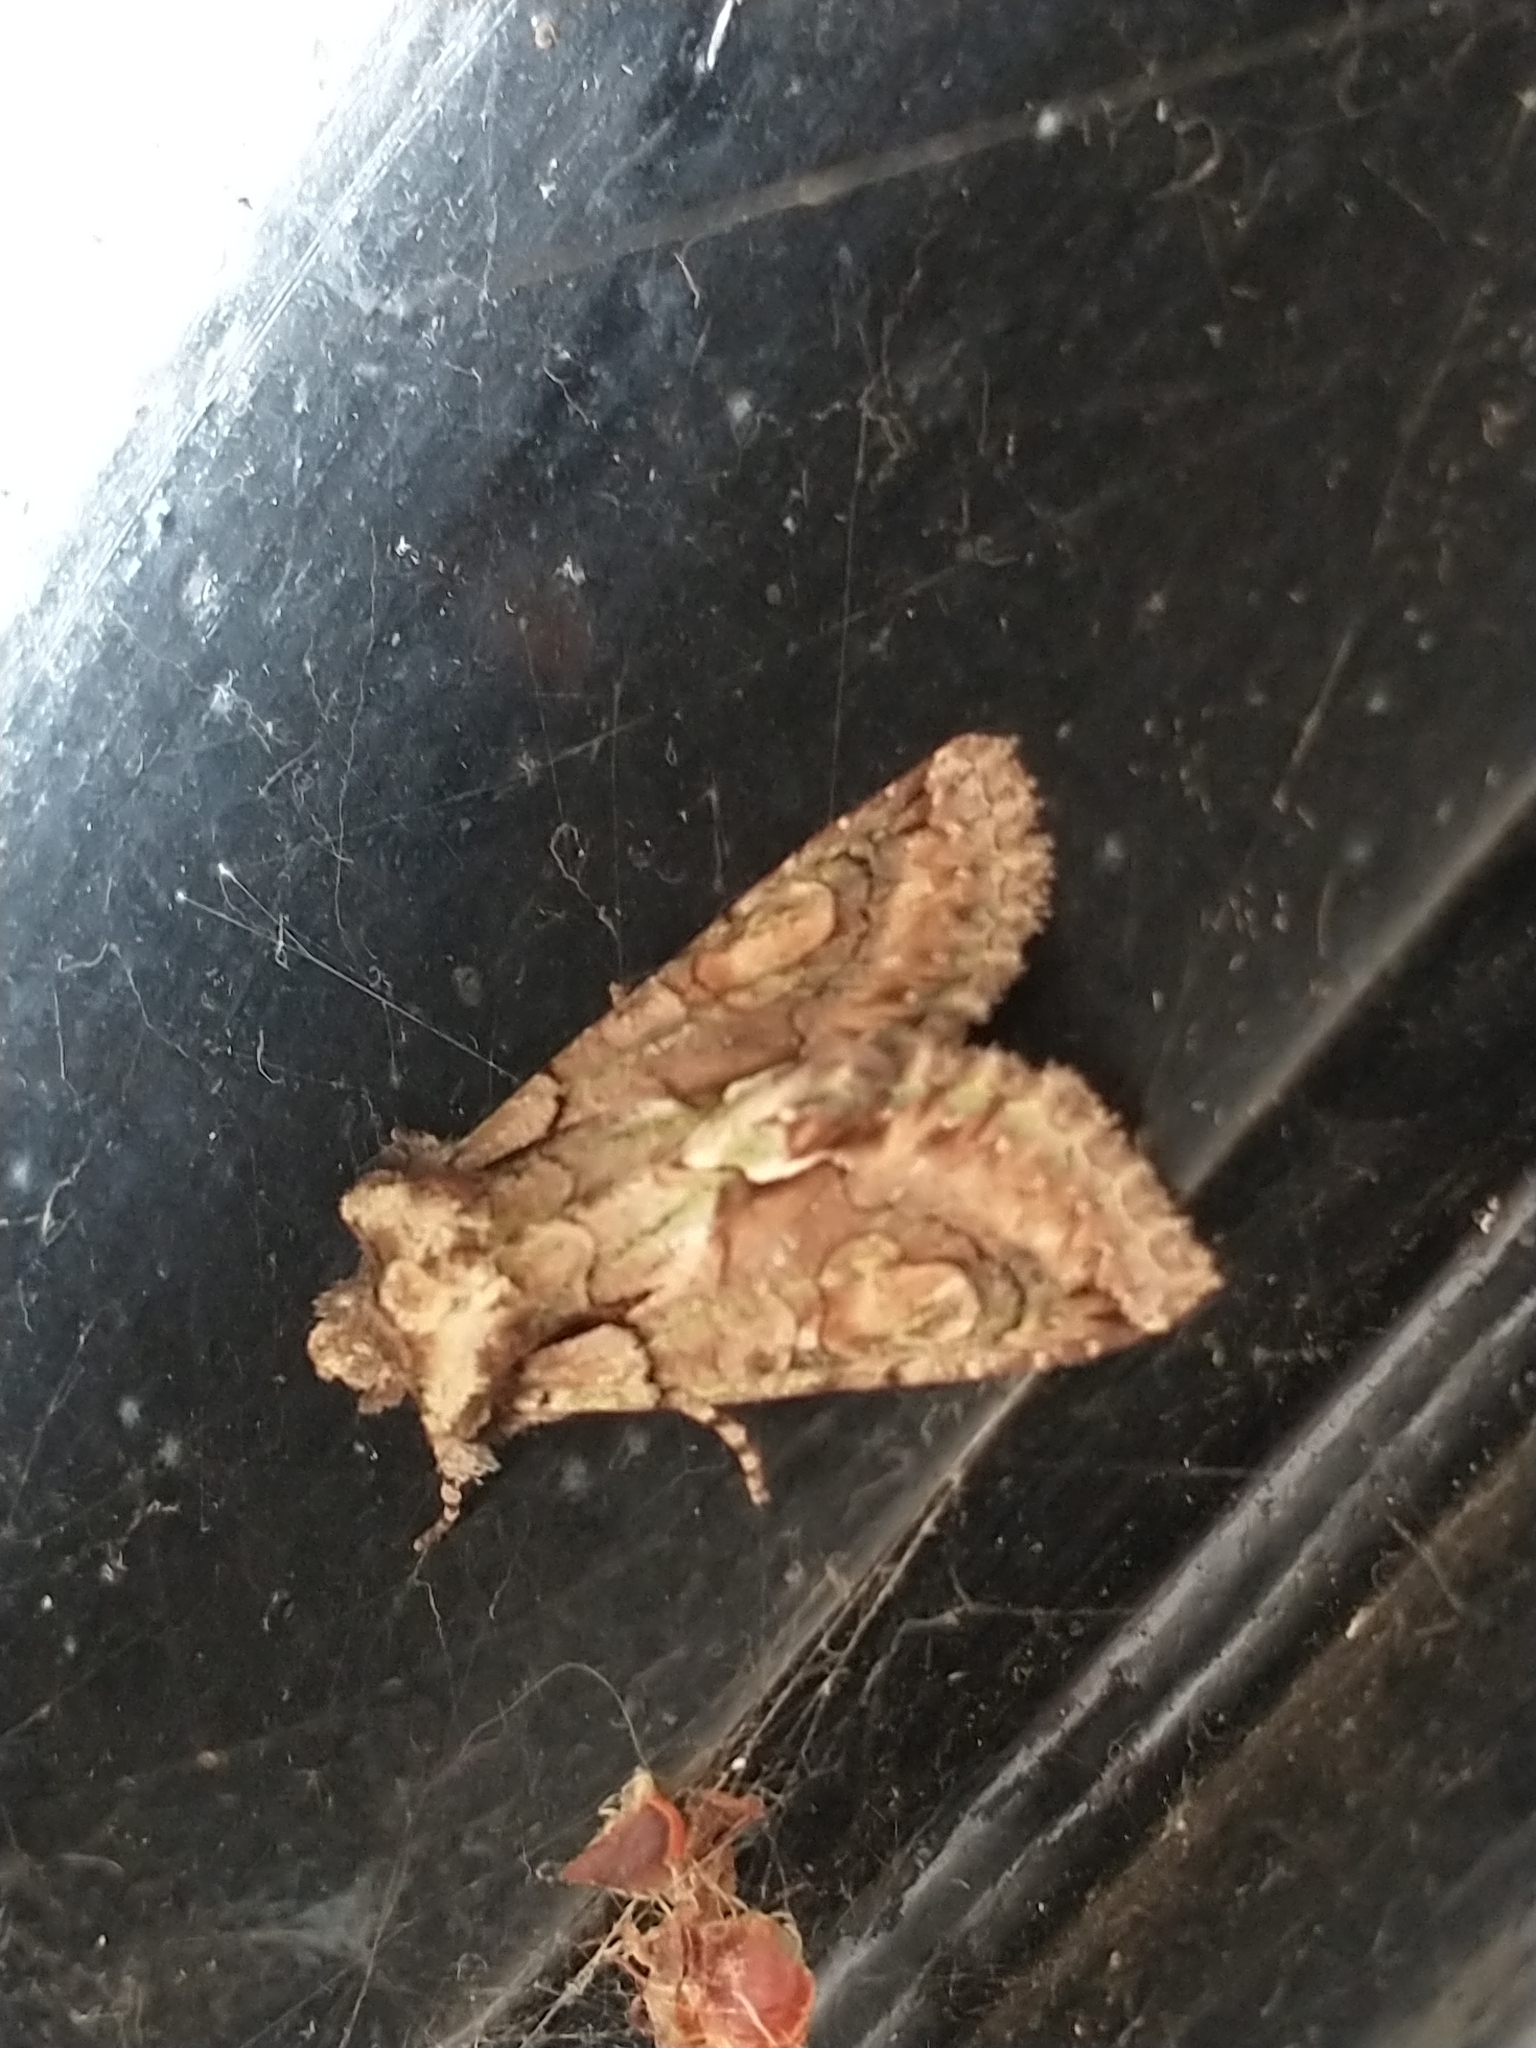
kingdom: Animalia
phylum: Arthropoda
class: Insecta
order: Lepidoptera
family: Noctuidae
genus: Allophyes
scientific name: Allophyes oxyacanthae
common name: Green-brindled crescent
